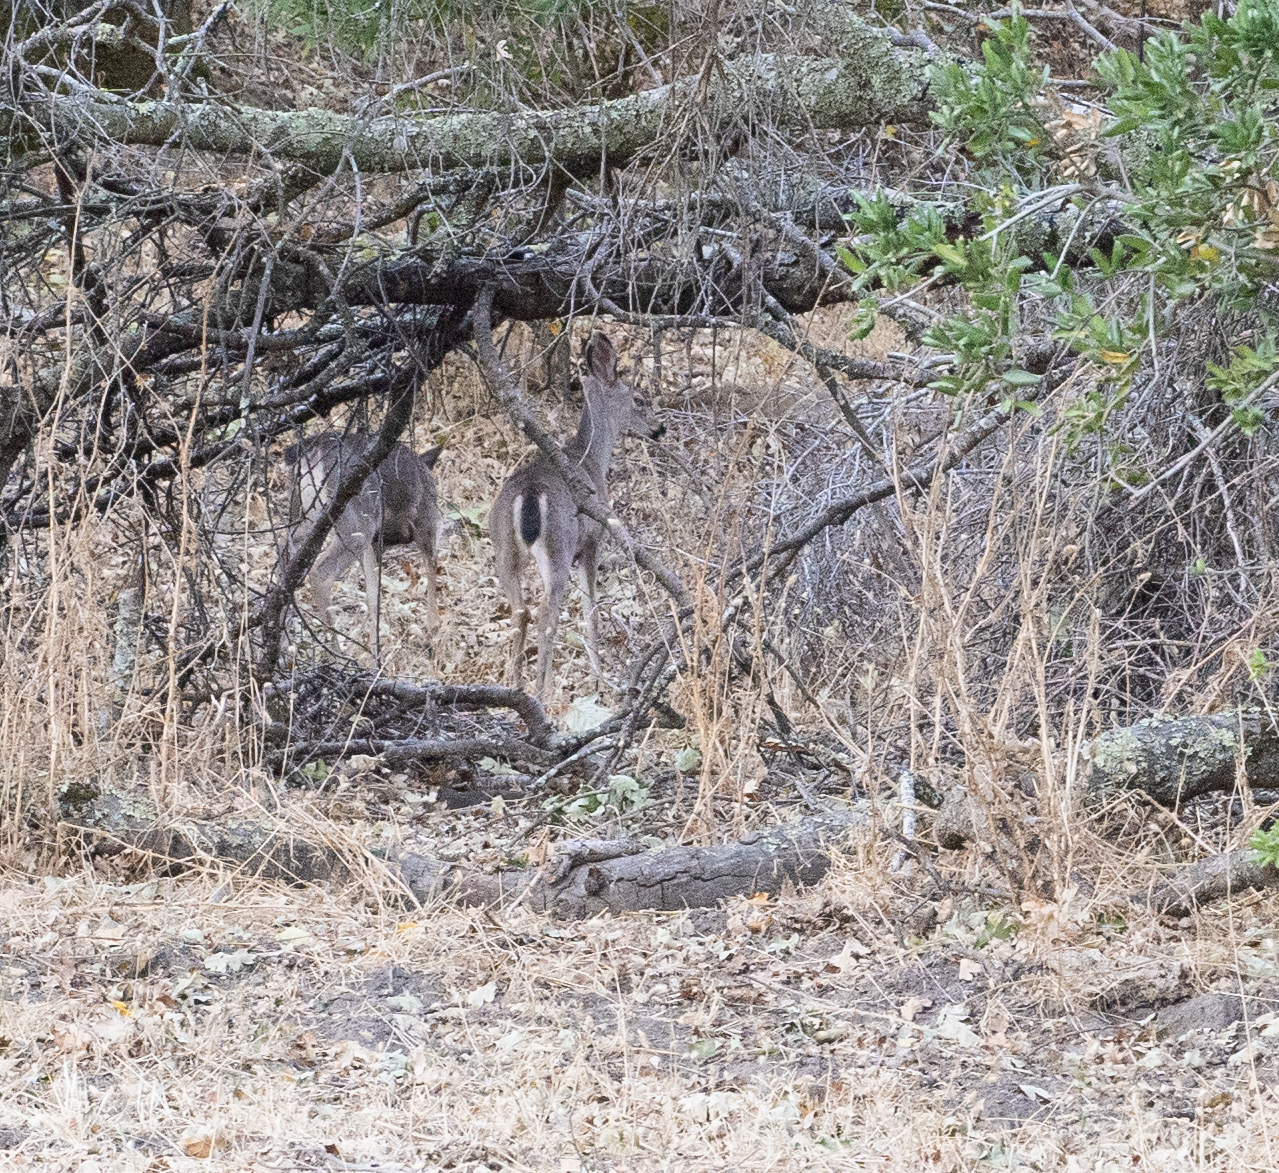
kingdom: Animalia
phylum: Chordata
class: Mammalia
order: Artiodactyla
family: Cervidae
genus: Odocoileus
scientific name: Odocoileus hemionus
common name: Mule deer
